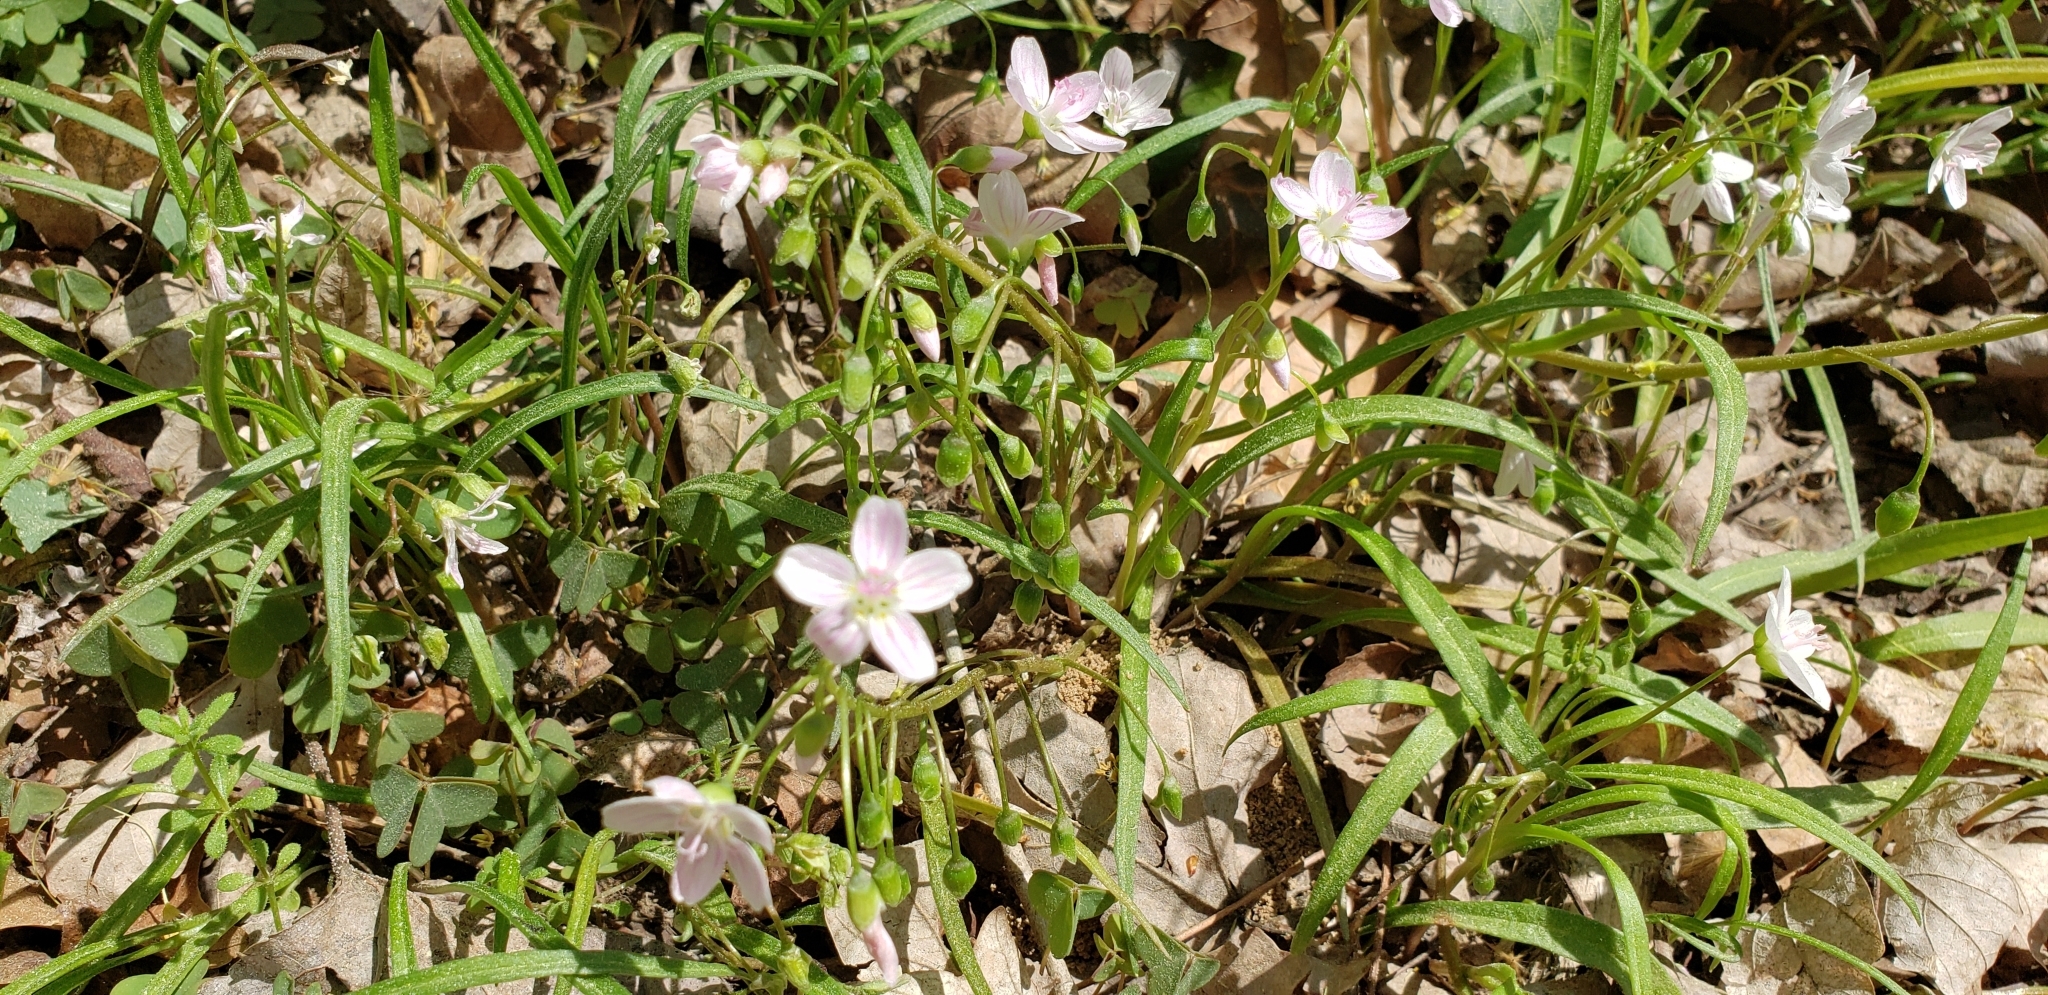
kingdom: Plantae
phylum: Tracheophyta
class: Magnoliopsida
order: Caryophyllales
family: Montiaceae
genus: Claytonia
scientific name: Claytonia virginica
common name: Virginia springbeauty
